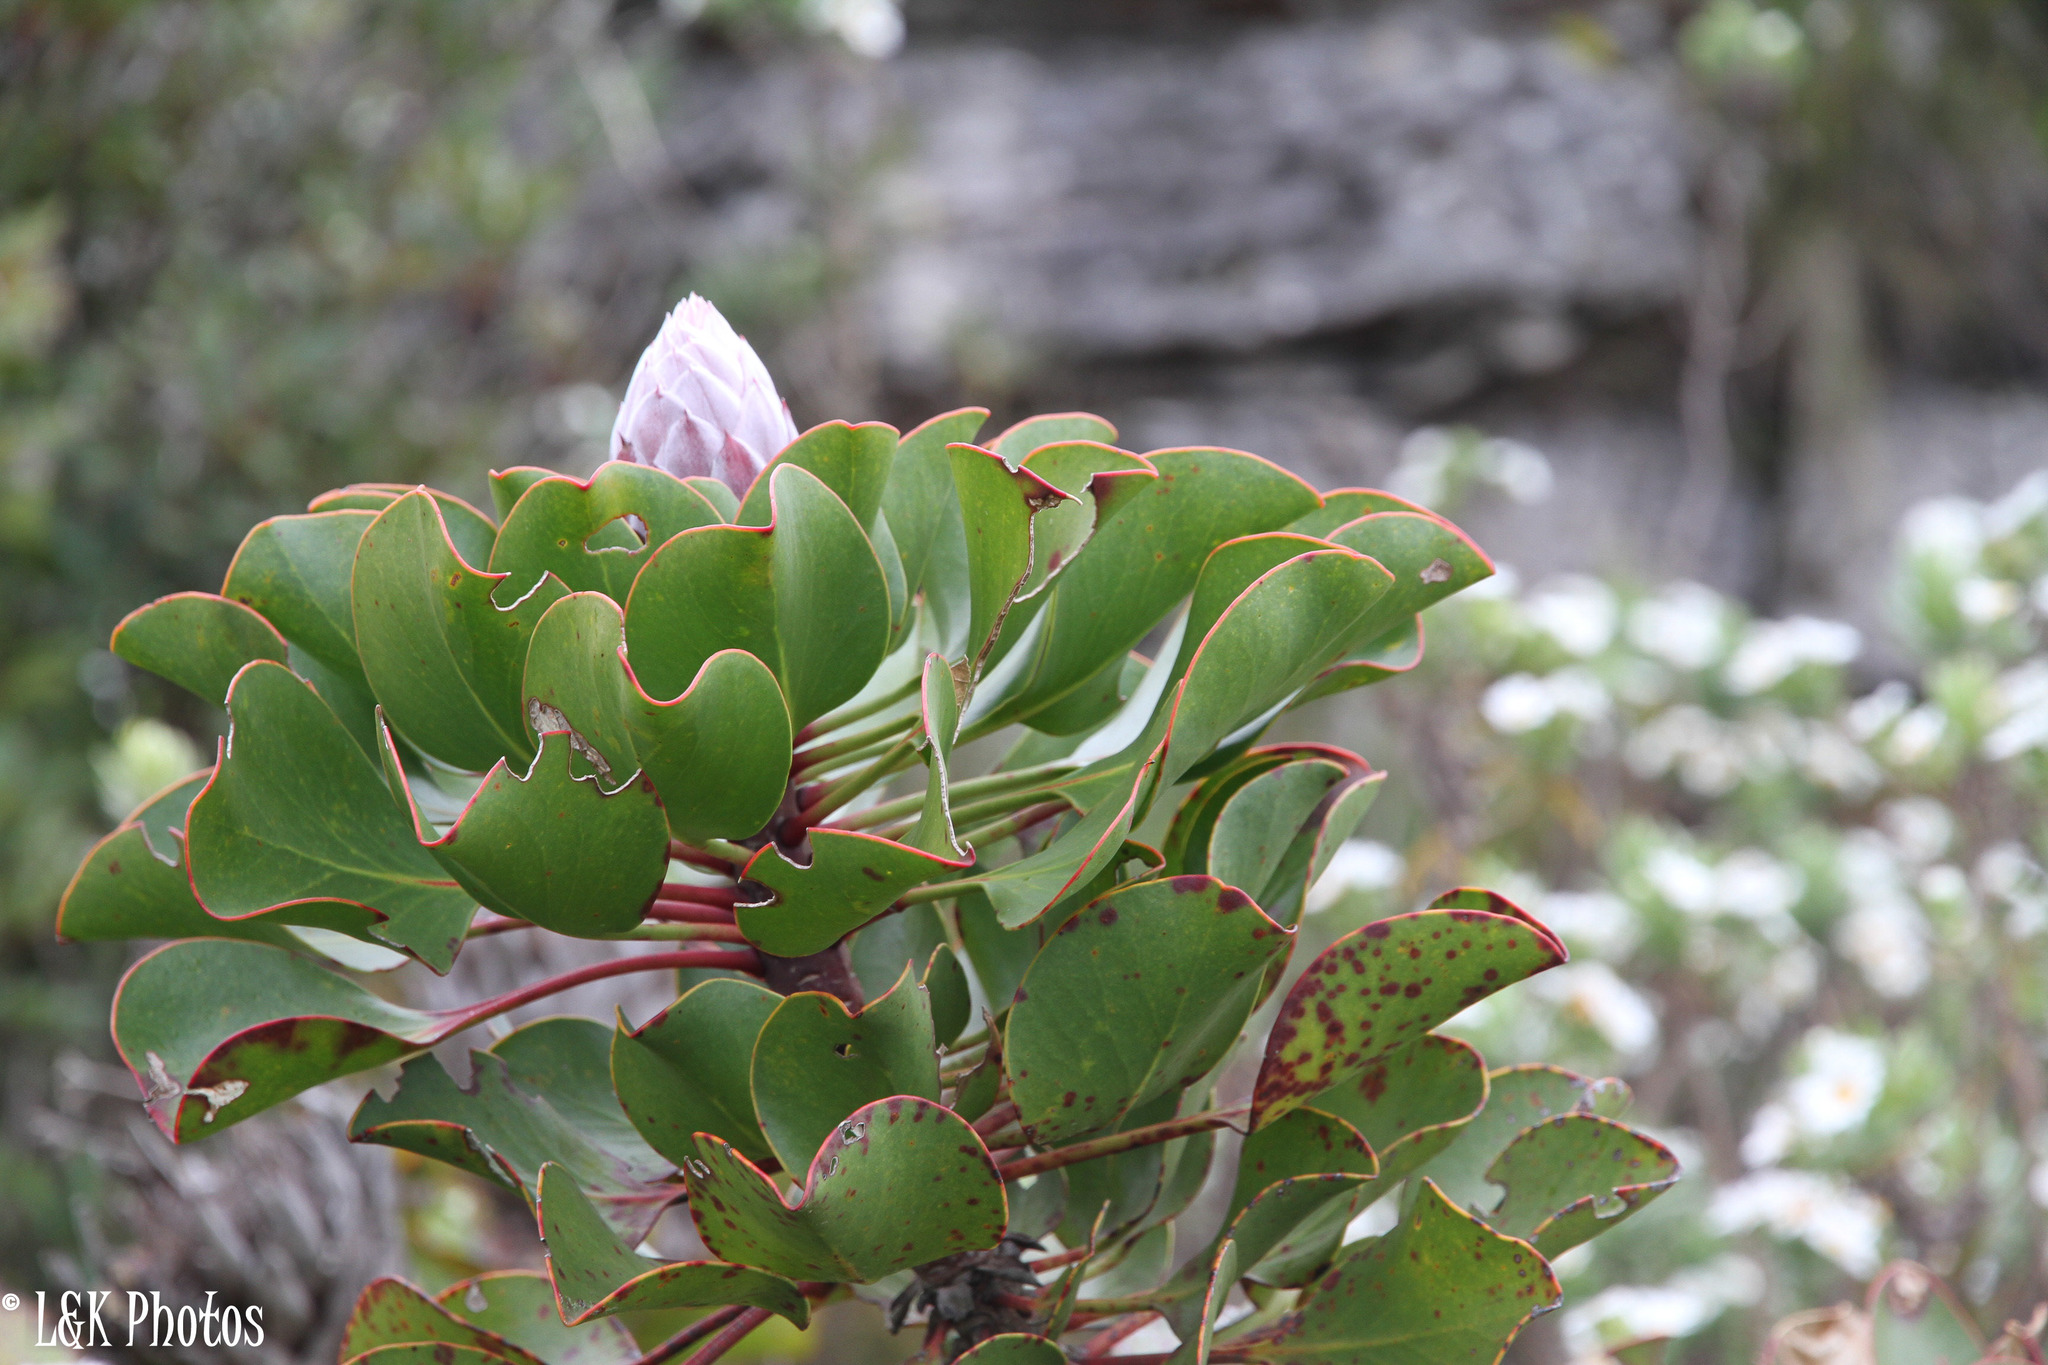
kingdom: Plantae
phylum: Tracheophyta
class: Magnoliopsida
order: Proteales
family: Proteaceae
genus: Protea
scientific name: Protea cynaroides
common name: King protea
